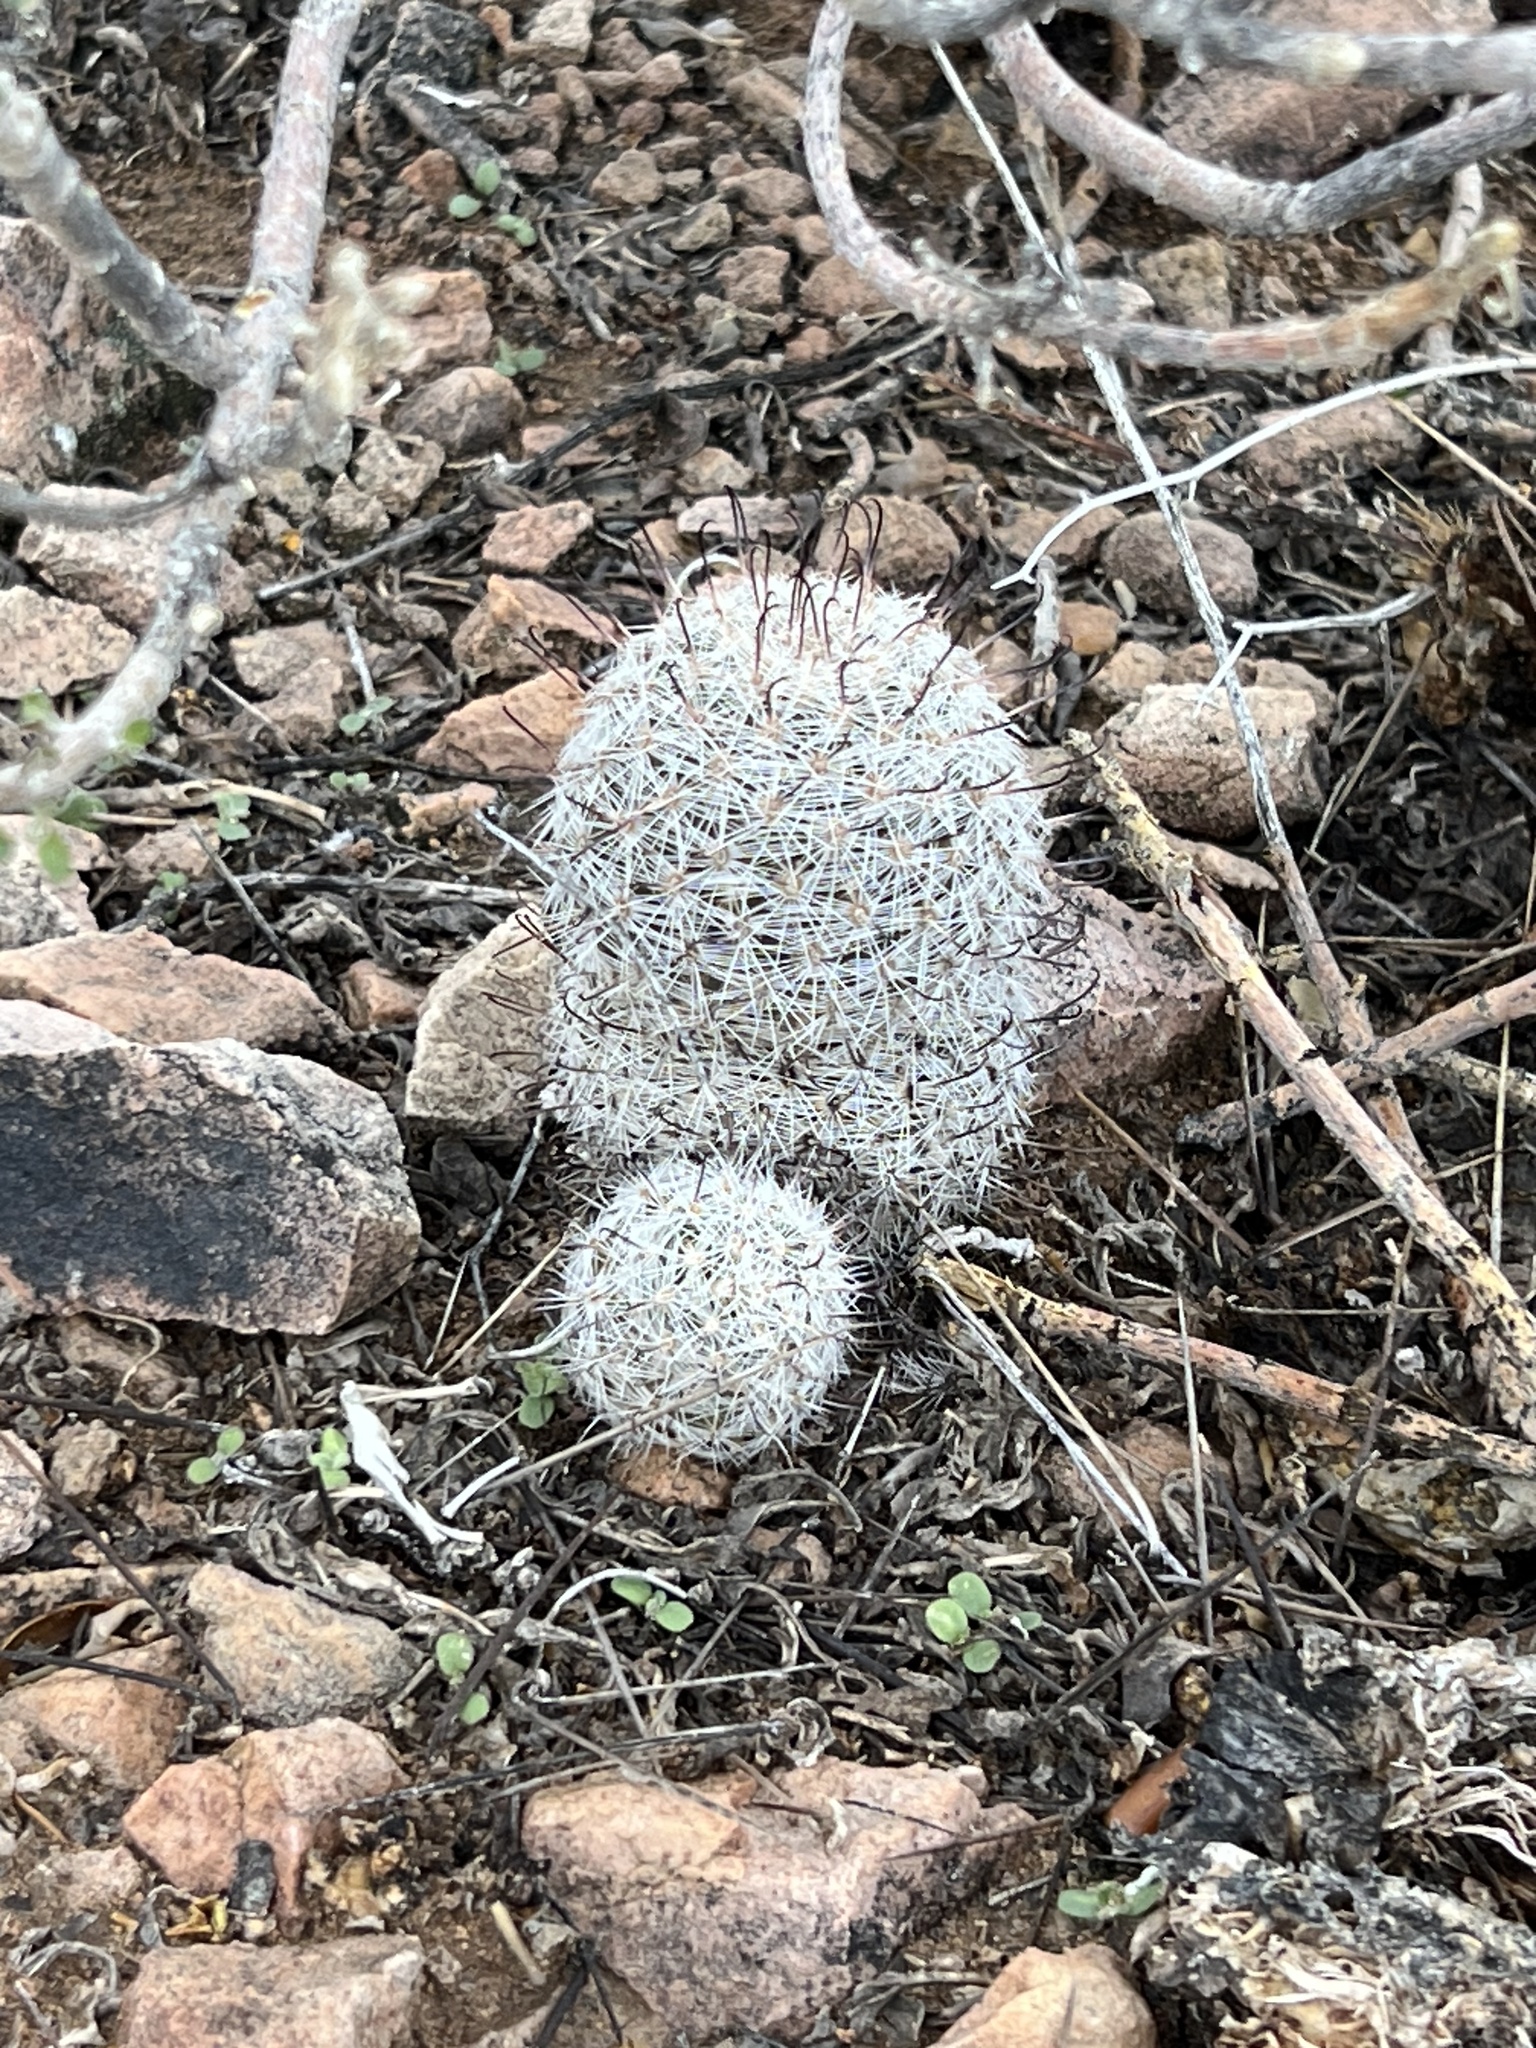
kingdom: Plantae
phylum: Tracheophyta
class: Magnoliopsida
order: Caryophyllales
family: Cactaceae
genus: Cochemiea
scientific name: Cochemiea grahamii
